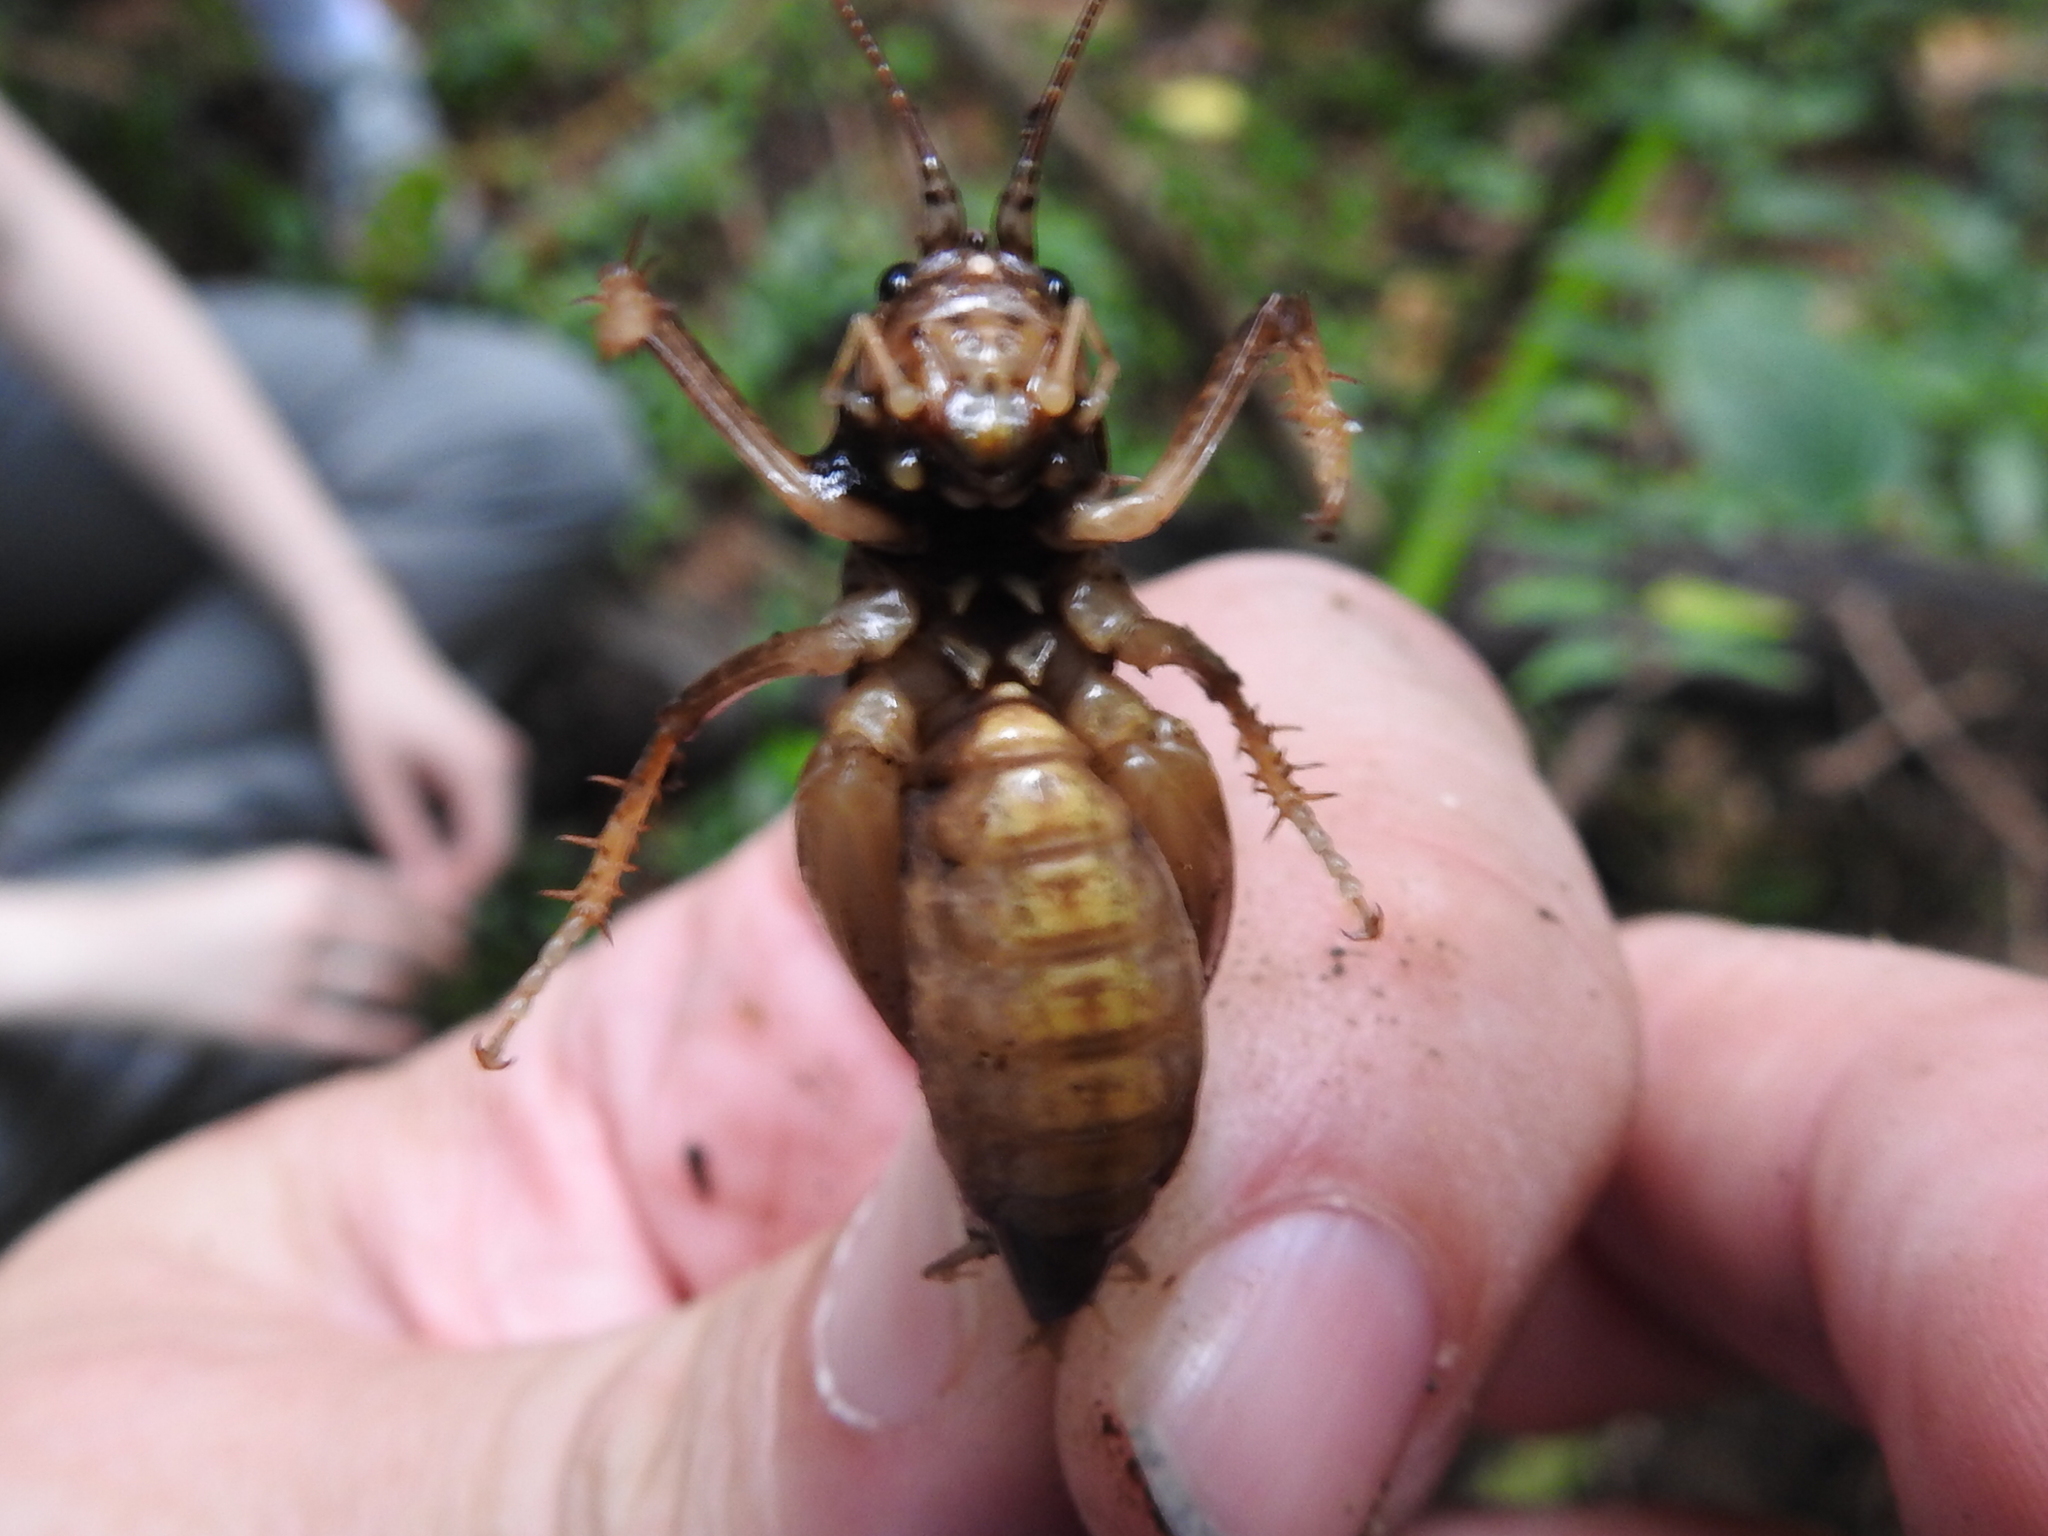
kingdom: Animalia
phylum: Arthropoda
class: Insecta
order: Orthoptera
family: Anostostomatidae
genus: Anabropsis
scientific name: Anabropsis spinigera
